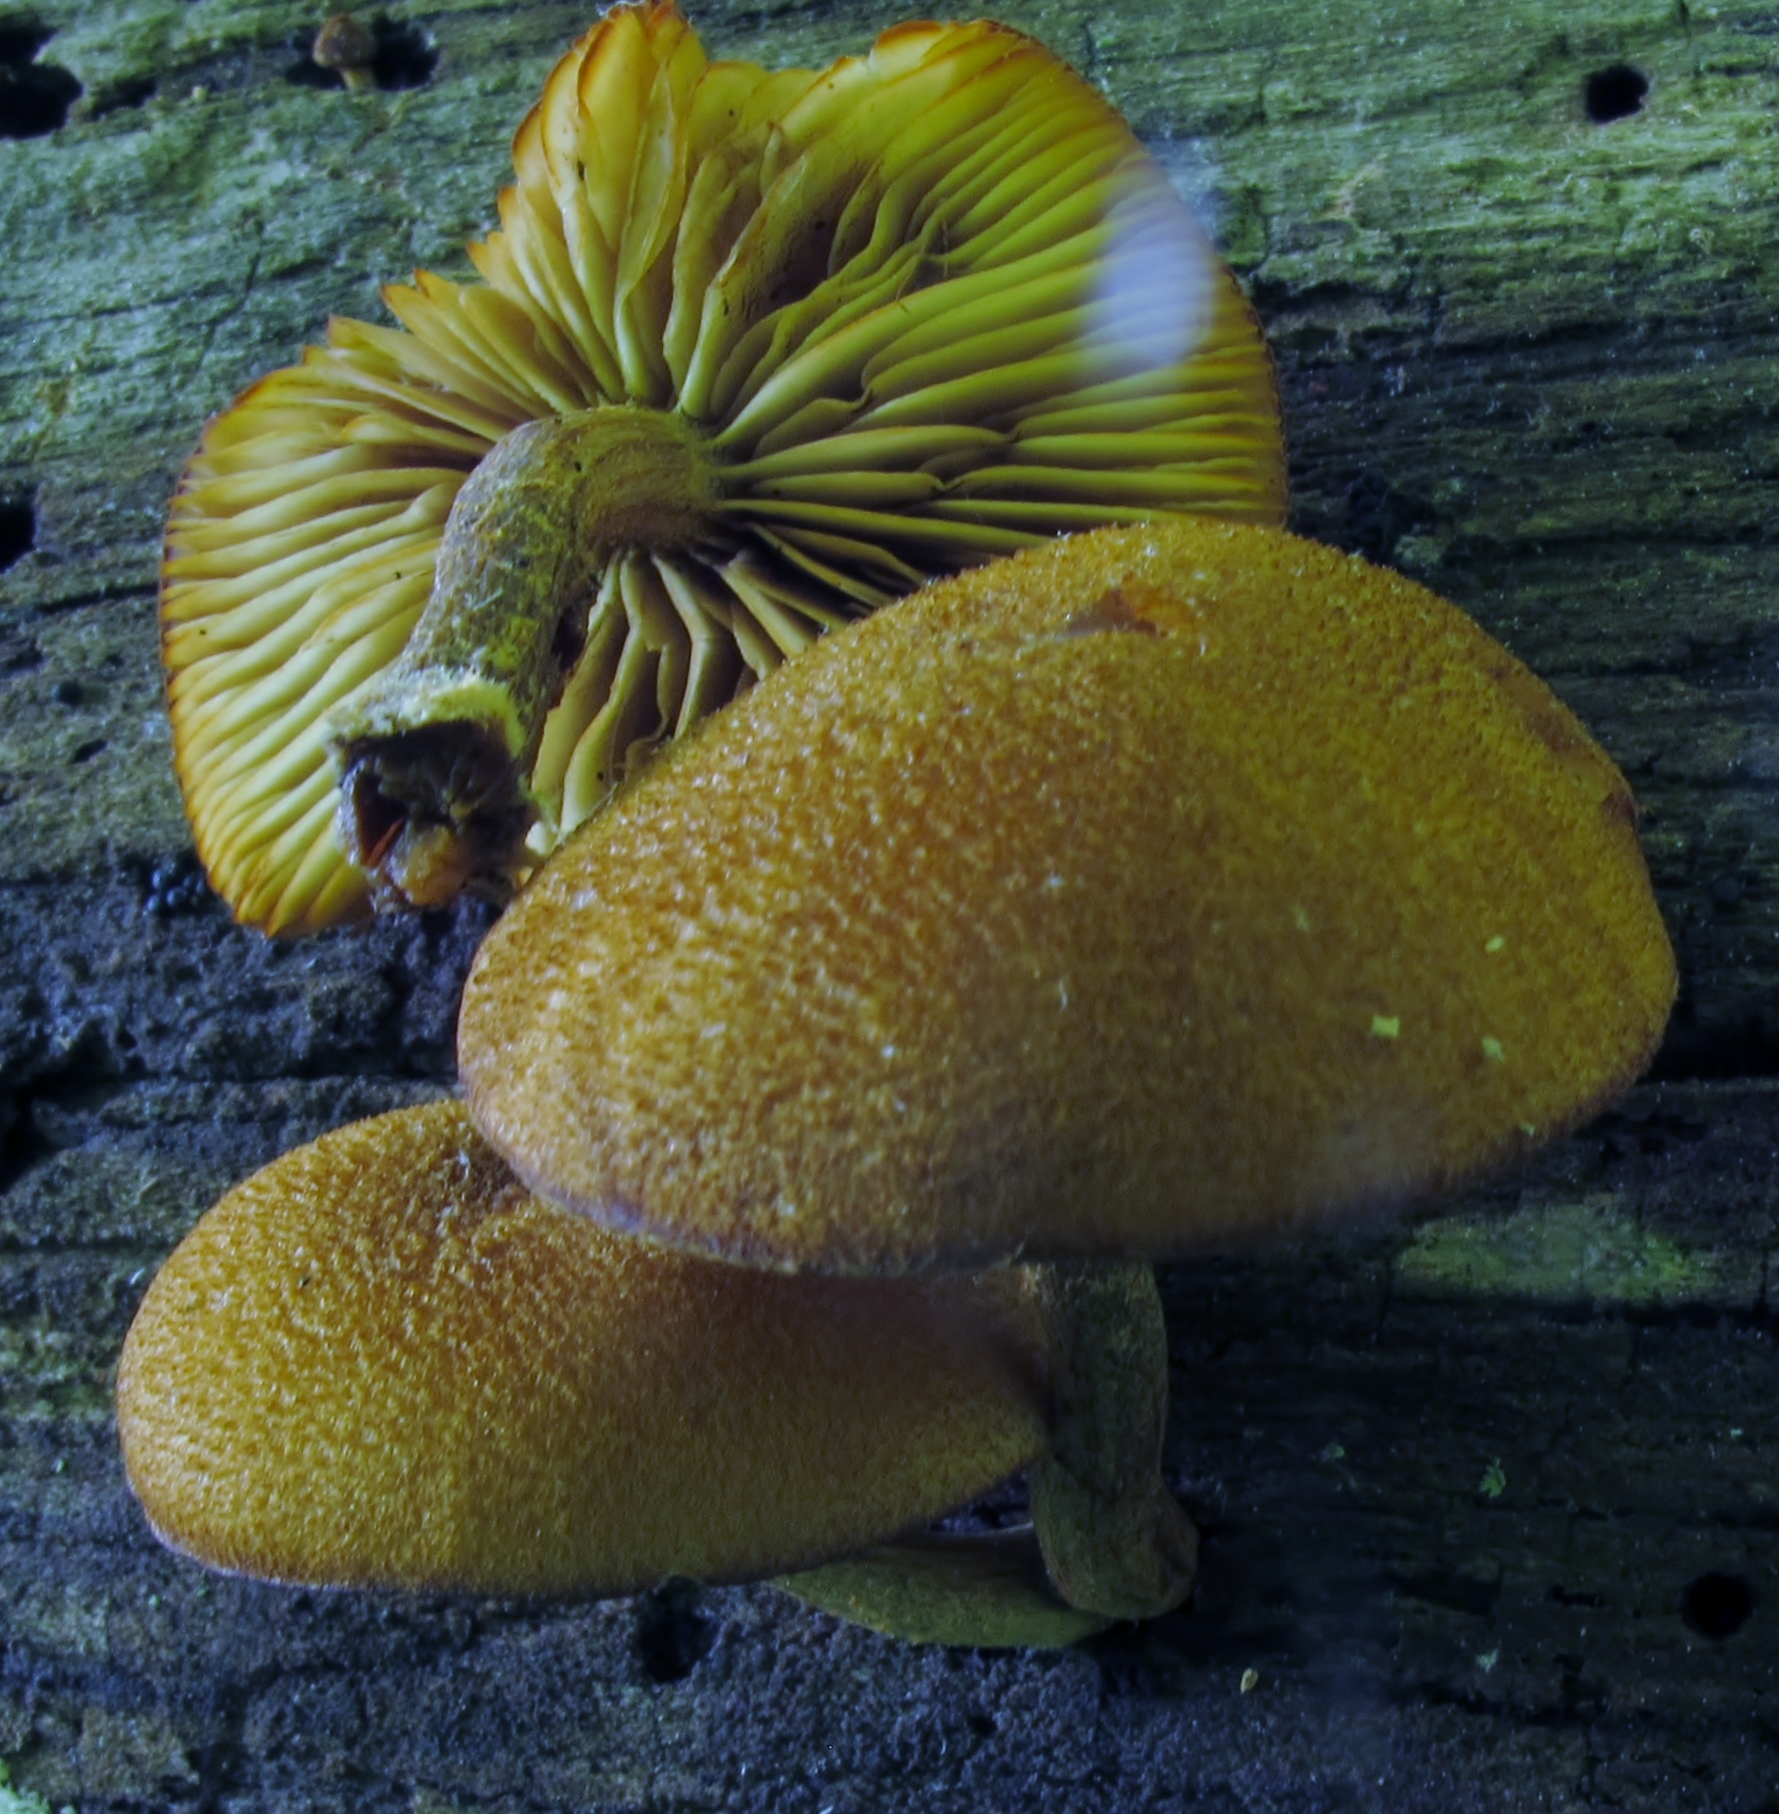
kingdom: Fungi
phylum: Basidiomycota
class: Agaricomycetes
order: Agaricales
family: Strophariaceae
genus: Pholiota
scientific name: Pholiota granulosa
